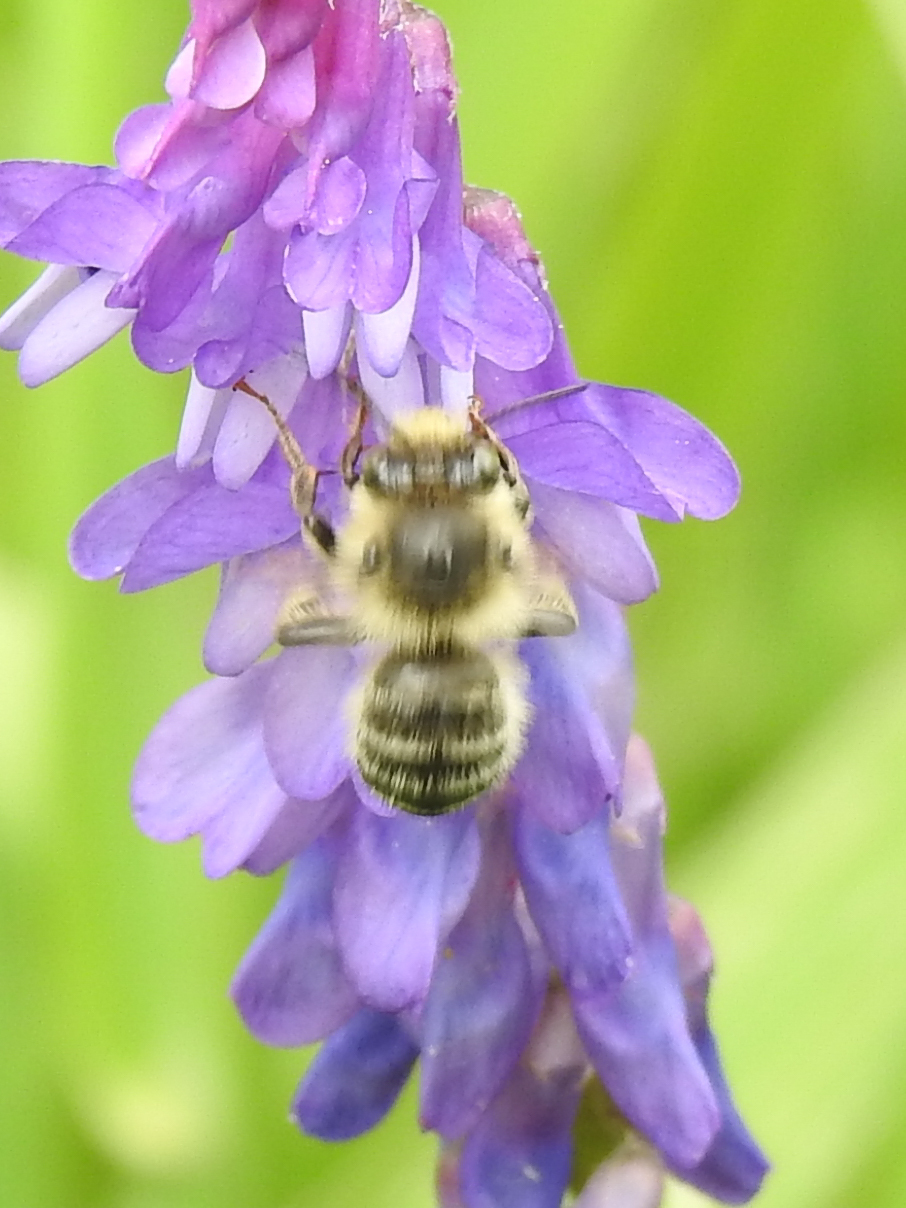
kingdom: Animalia
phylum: Arthropoda
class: Insecta
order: Hymenoptera
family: Apidae
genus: Anthophora
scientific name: Anthophora terminalis
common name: Orange-tipped wood-digger bee
